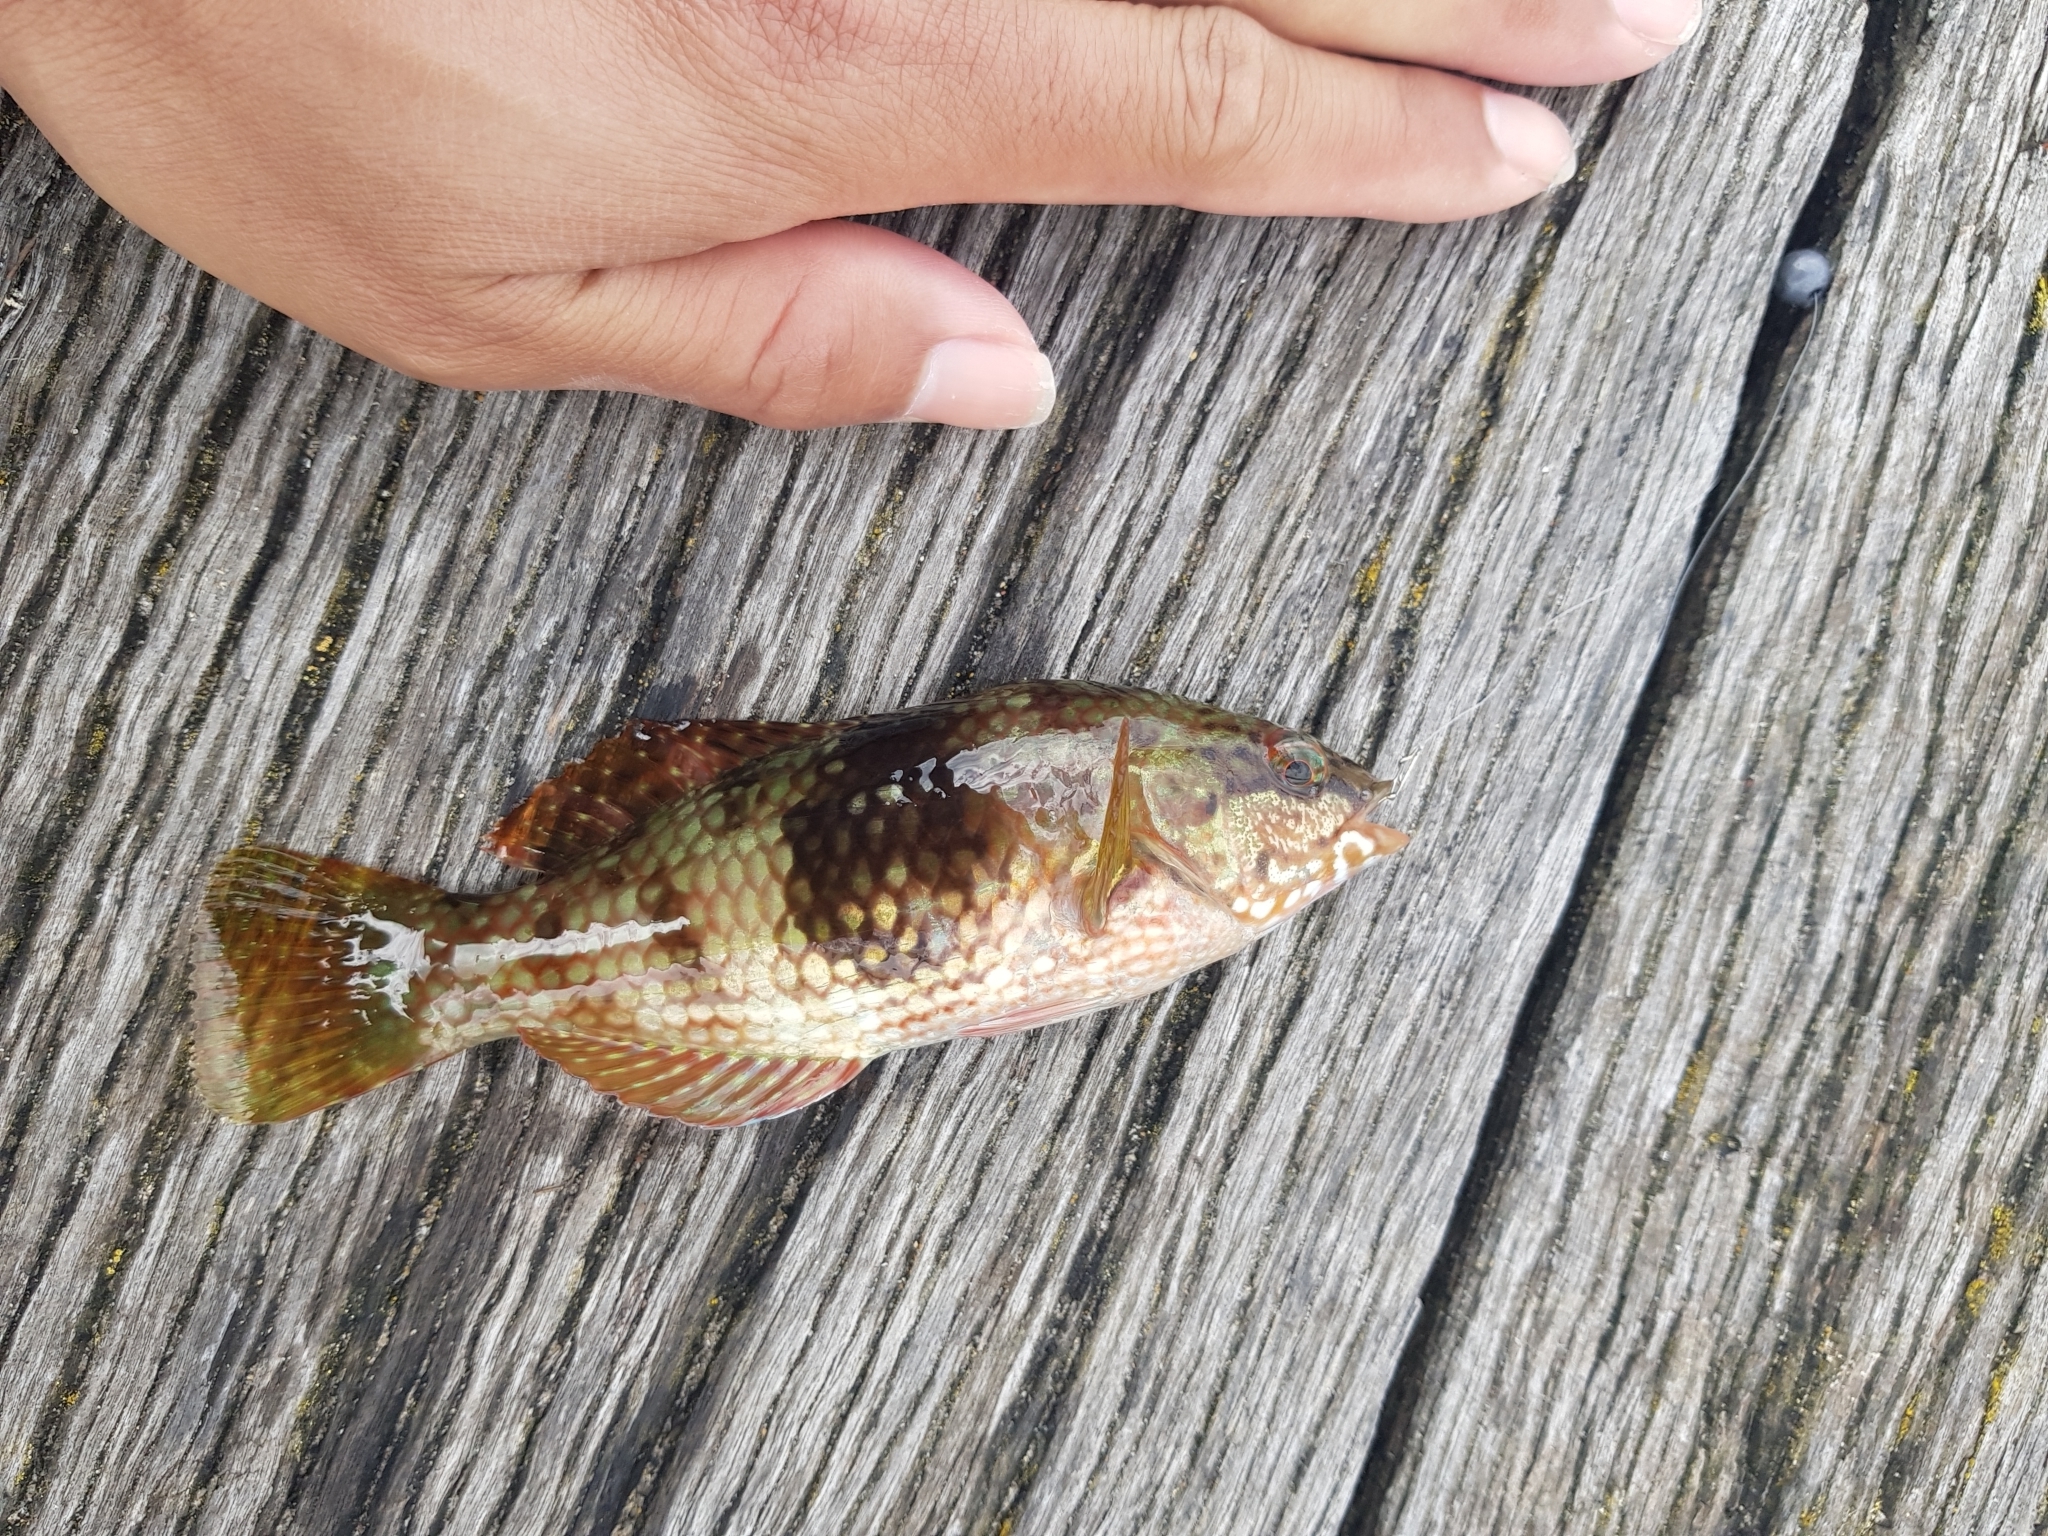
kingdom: Animalia
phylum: Chordata
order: Perciformes
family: Labridae
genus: Notolabrus
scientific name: Notolabrus tetricus
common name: Blue-throated parrotfish
